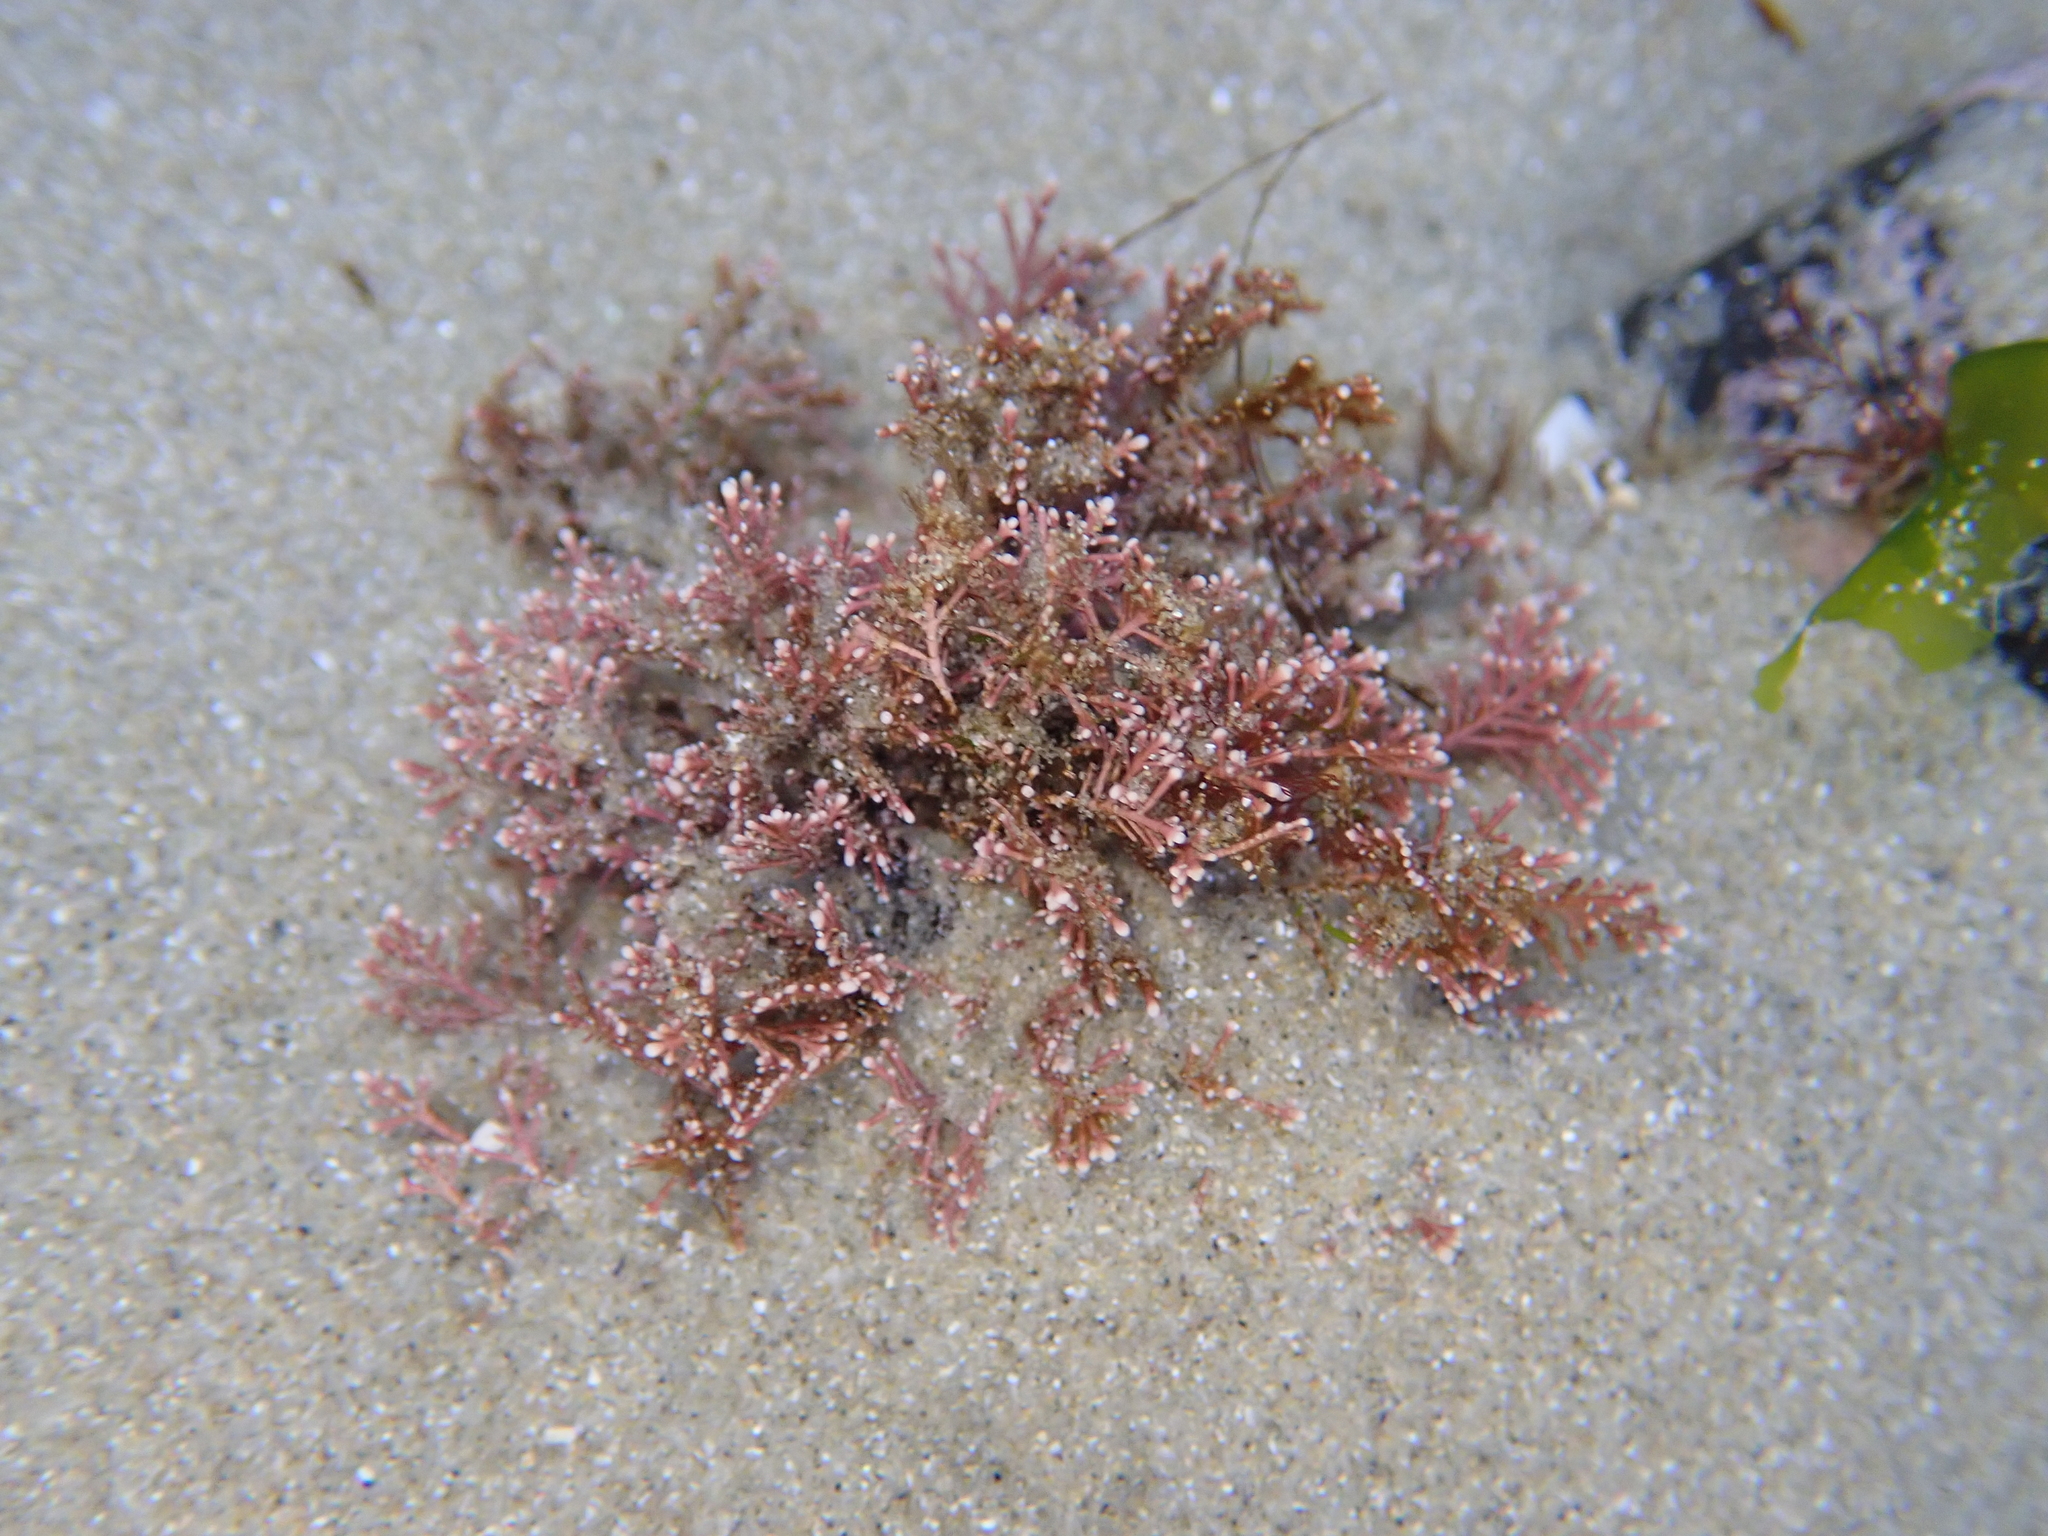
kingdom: Plantae
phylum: Rhodophyta
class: Florideophyceae
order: Corallinales
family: Corallinaceae
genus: Corallina
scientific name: Corallina officinalis
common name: Coral weed
